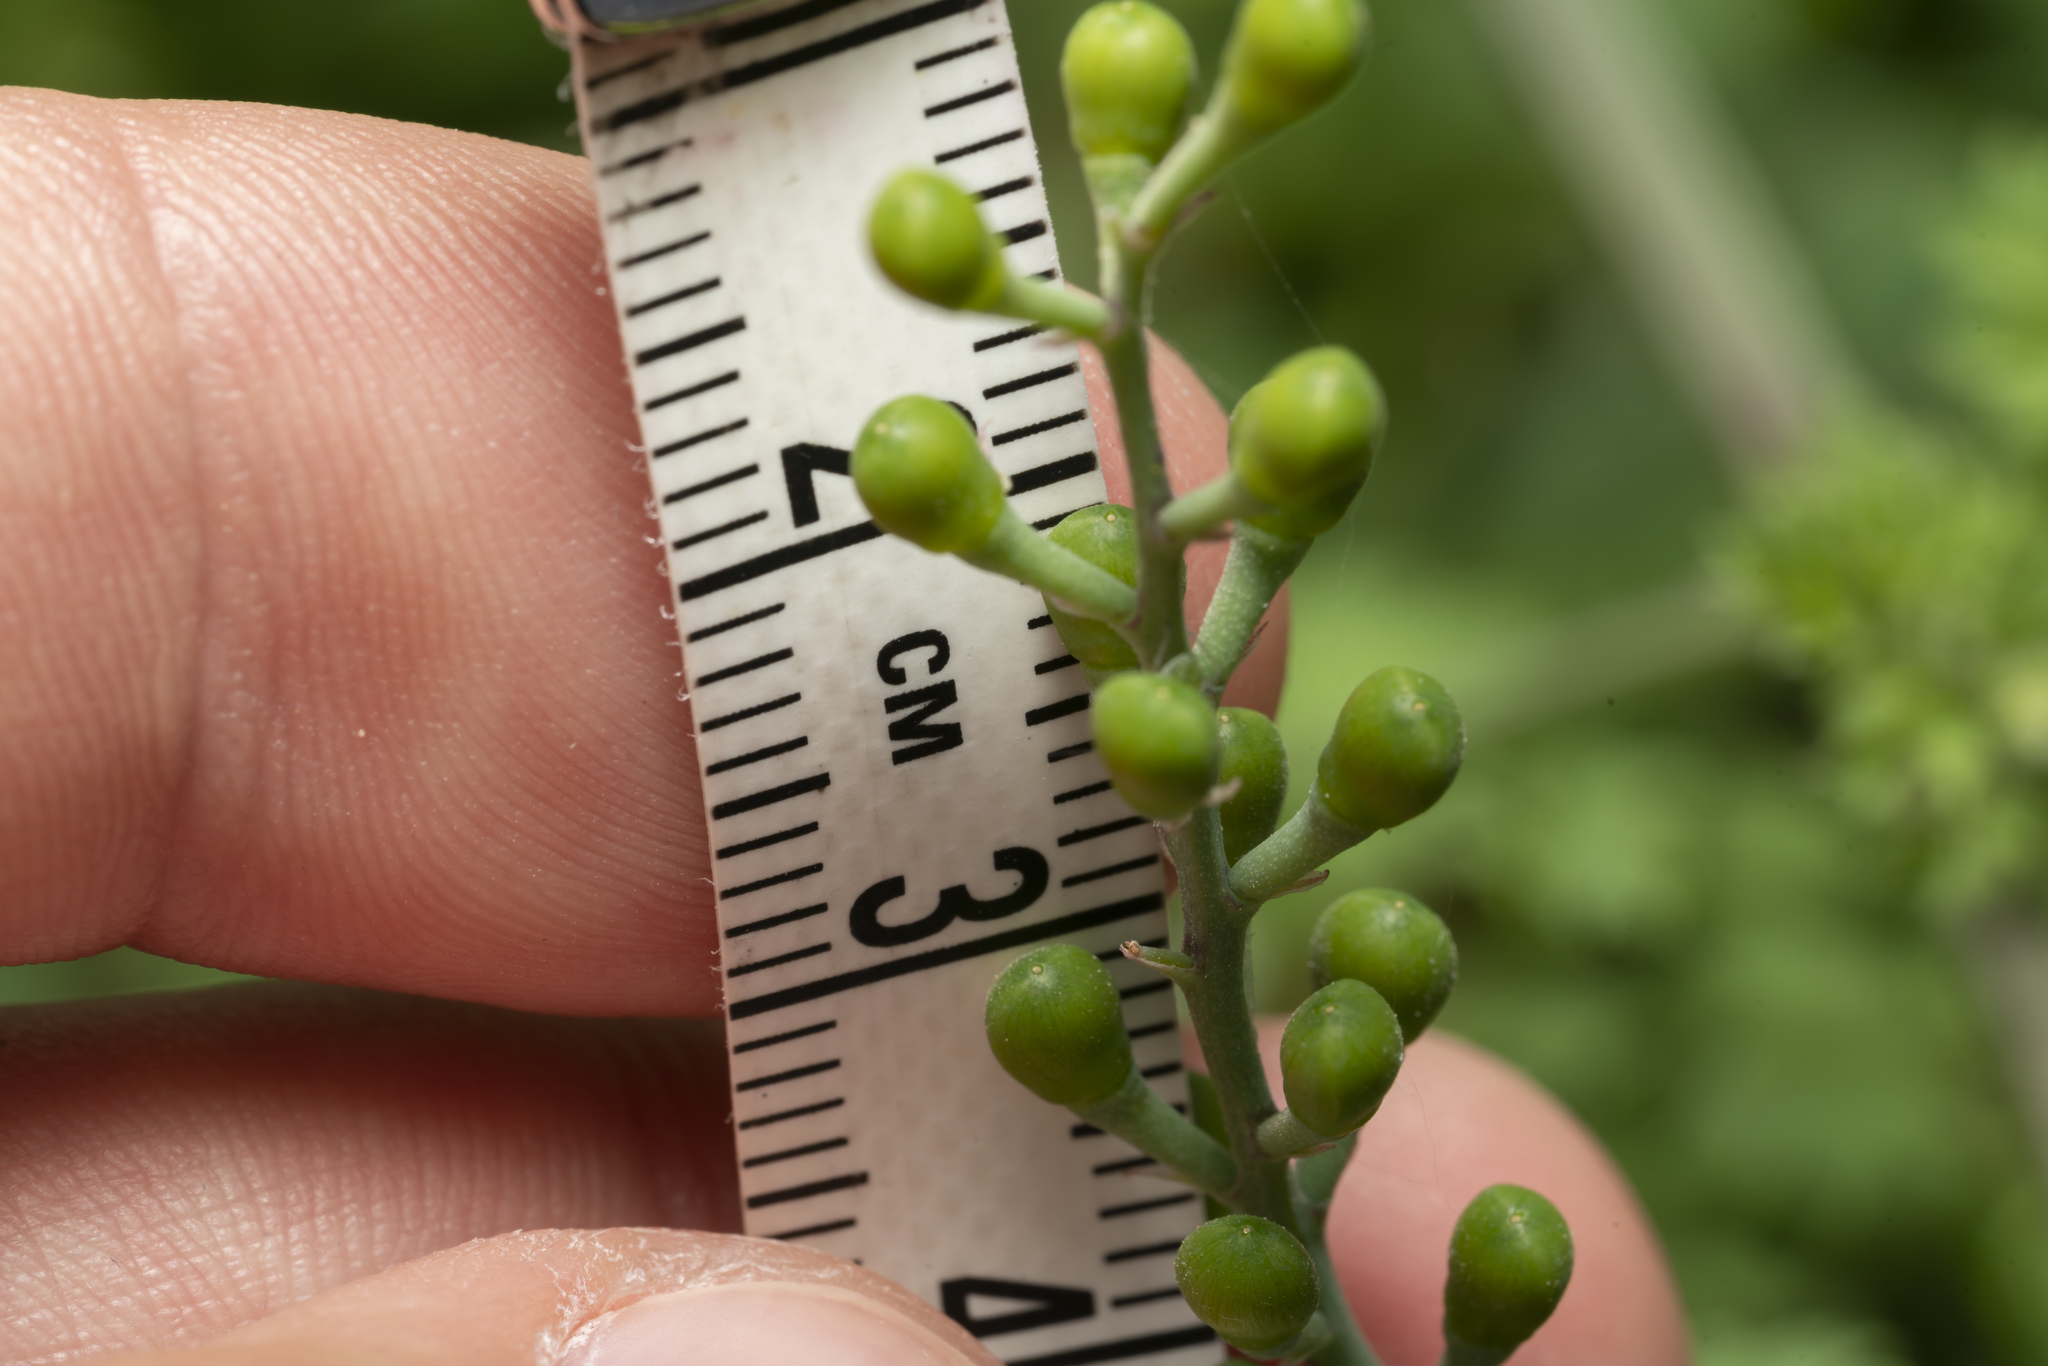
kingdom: Plantae
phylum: Tracheophyta
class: Magnoliopsida
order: Ranunculales
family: Papaveraceae
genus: Fumaria
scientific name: Fumaria judaica
